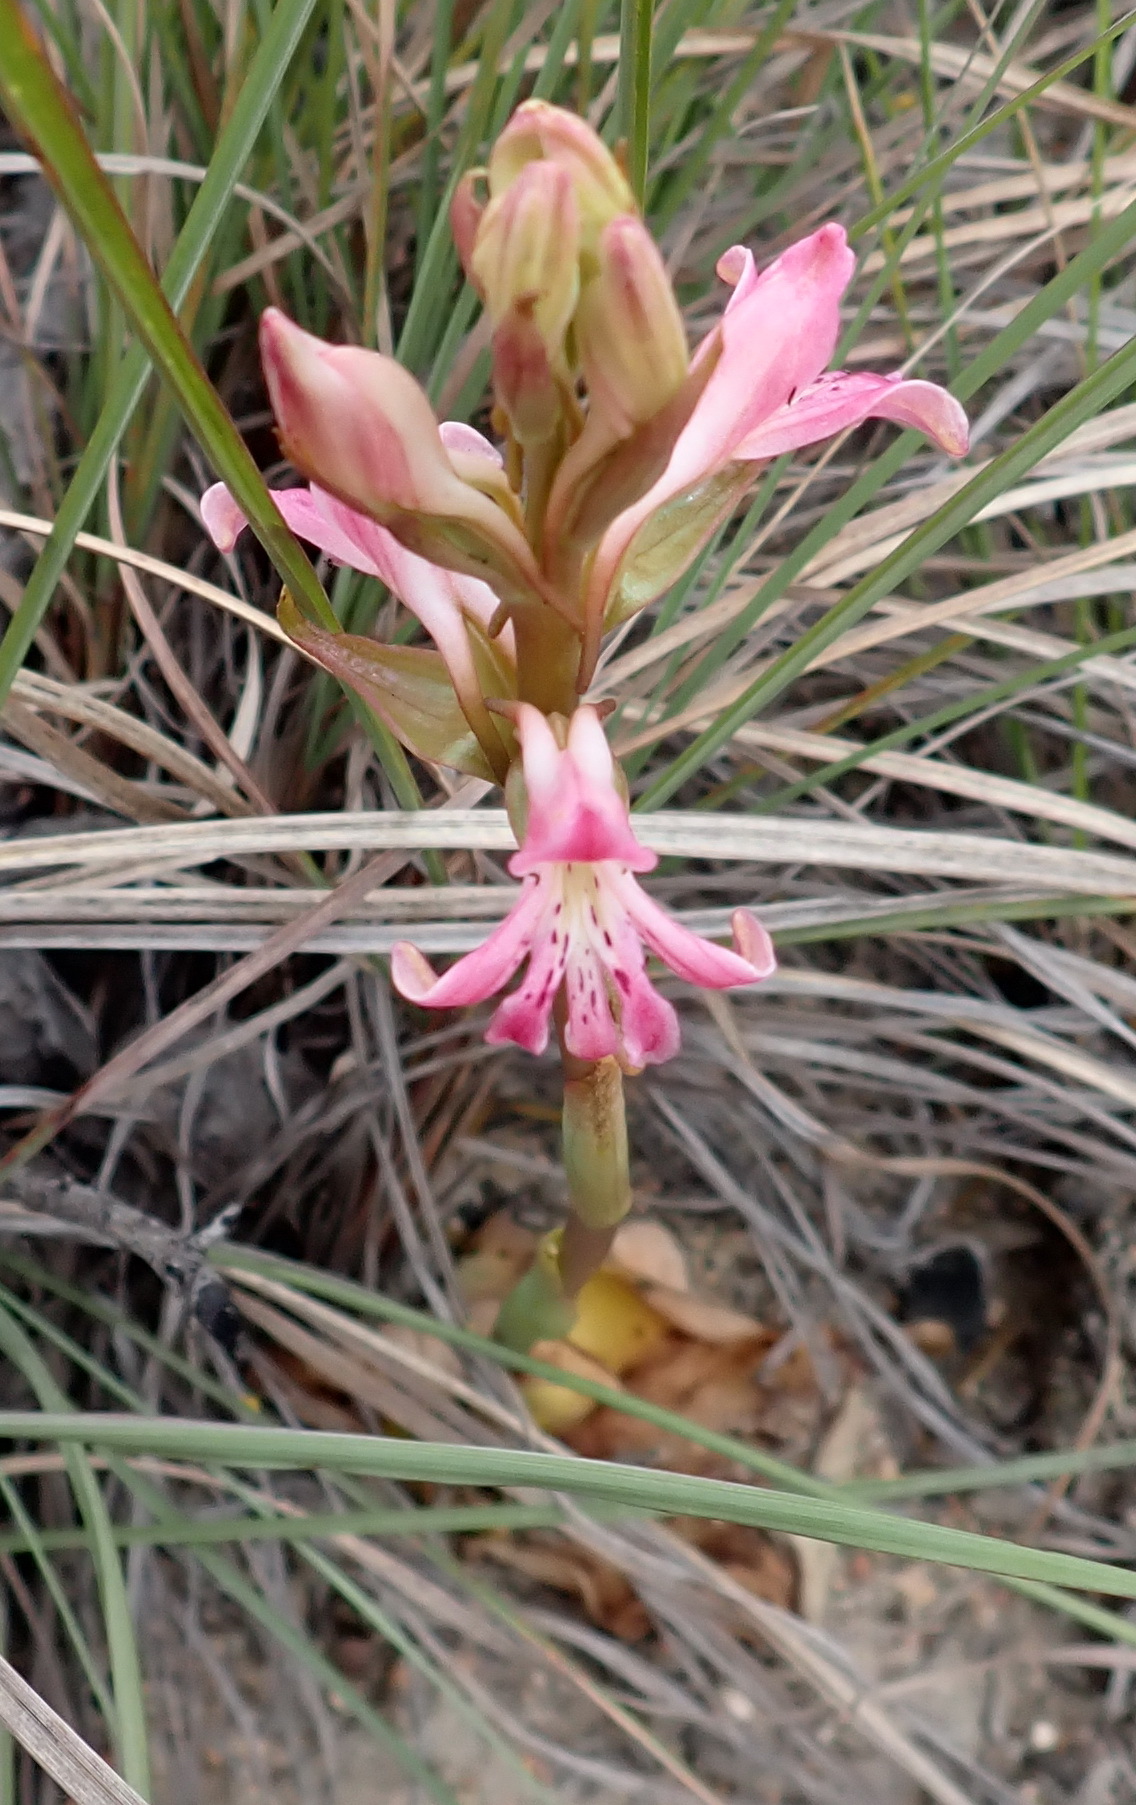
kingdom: Plantae
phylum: Tracheophyta
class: Liliopsida
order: Asparagales
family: Orchidaceae
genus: Satyrium
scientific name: Satyrium erectum
